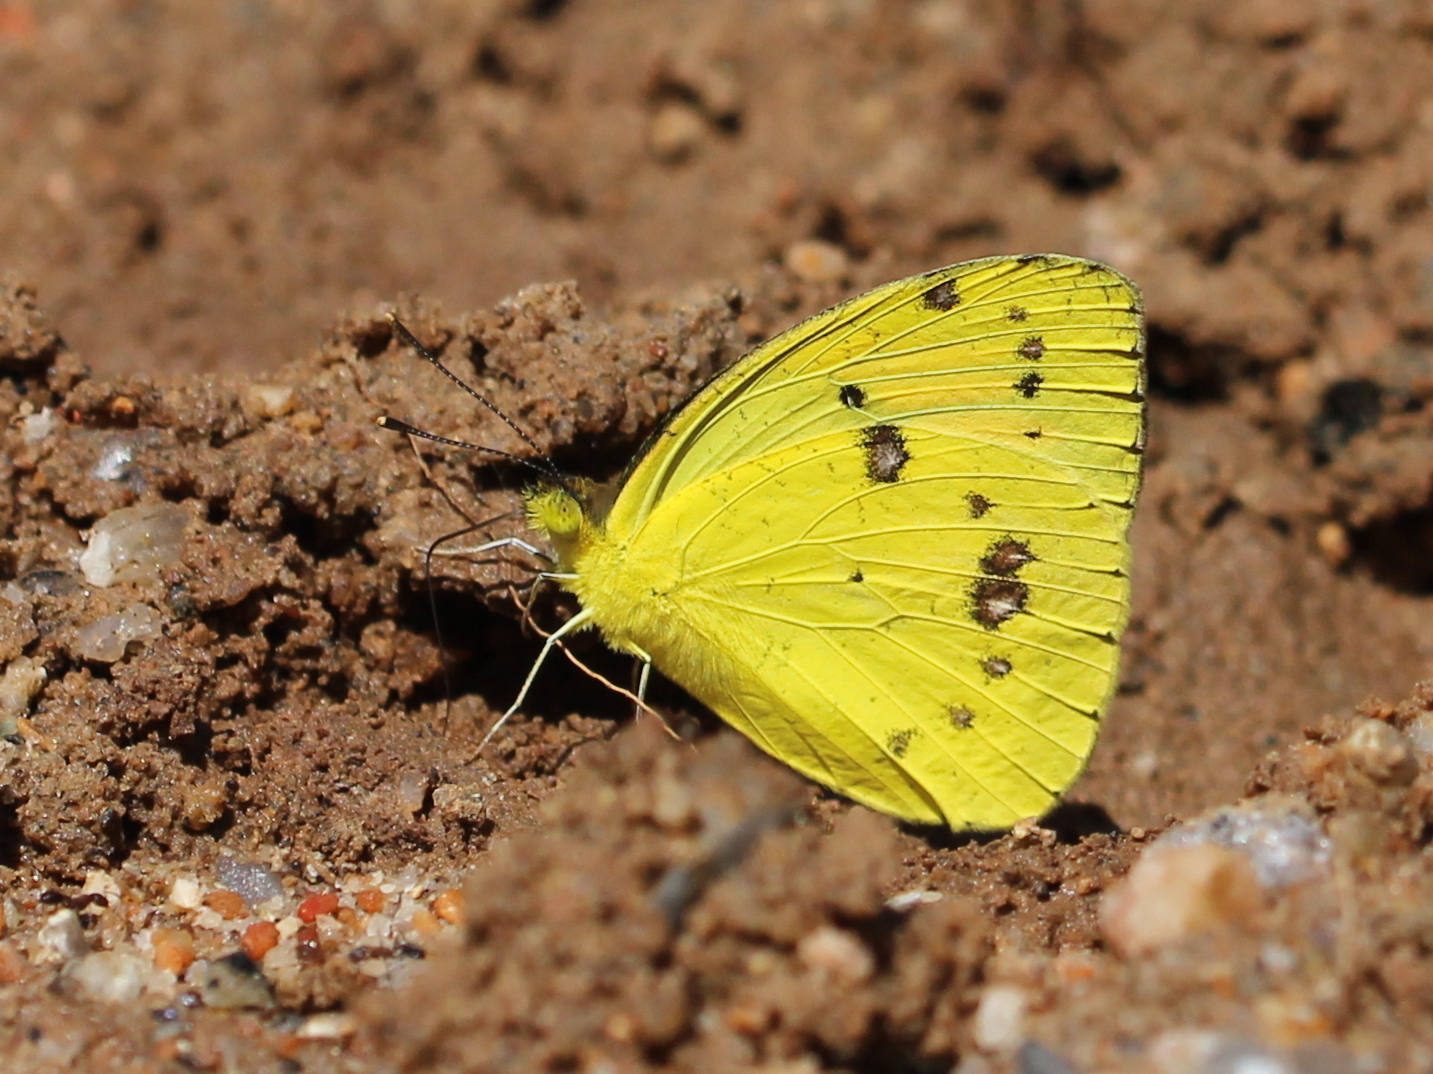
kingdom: Animalia
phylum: Arthropoda
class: Insecta
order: Lepidoptera
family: Pieridae
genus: Ixias
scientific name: Ixias pyrene
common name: Yellow orange tip
